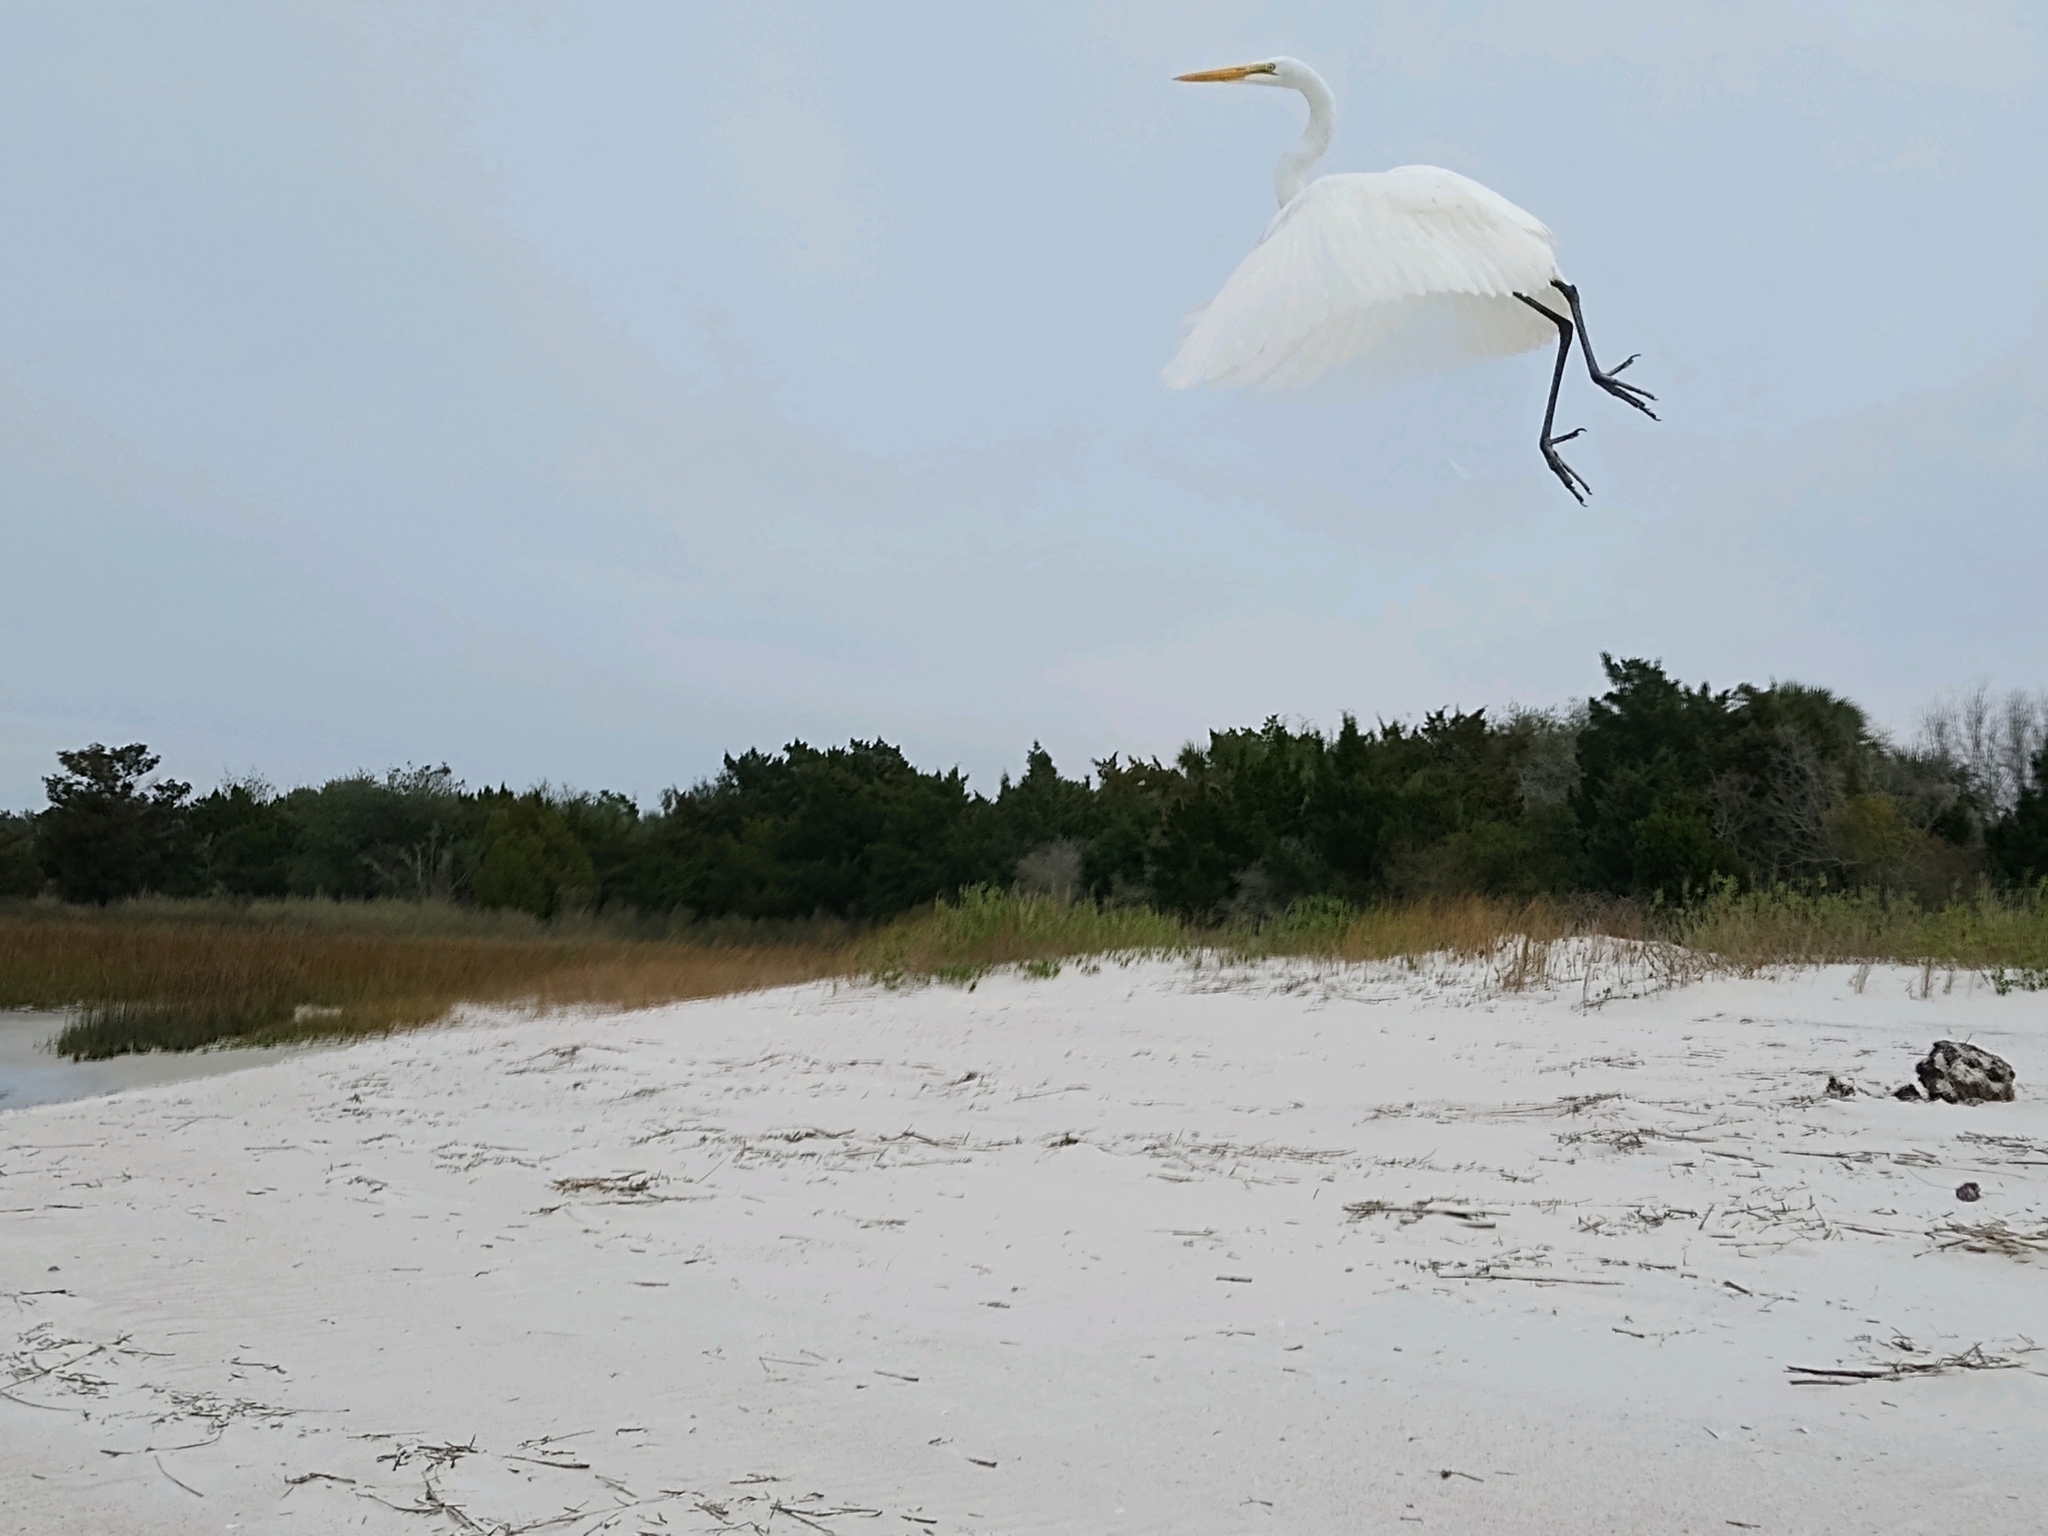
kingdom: Animalia
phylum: Chordata
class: Aves
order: Pelecaniformes
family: Ardeidae
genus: Ardea
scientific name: Ardea alba
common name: Great egret
